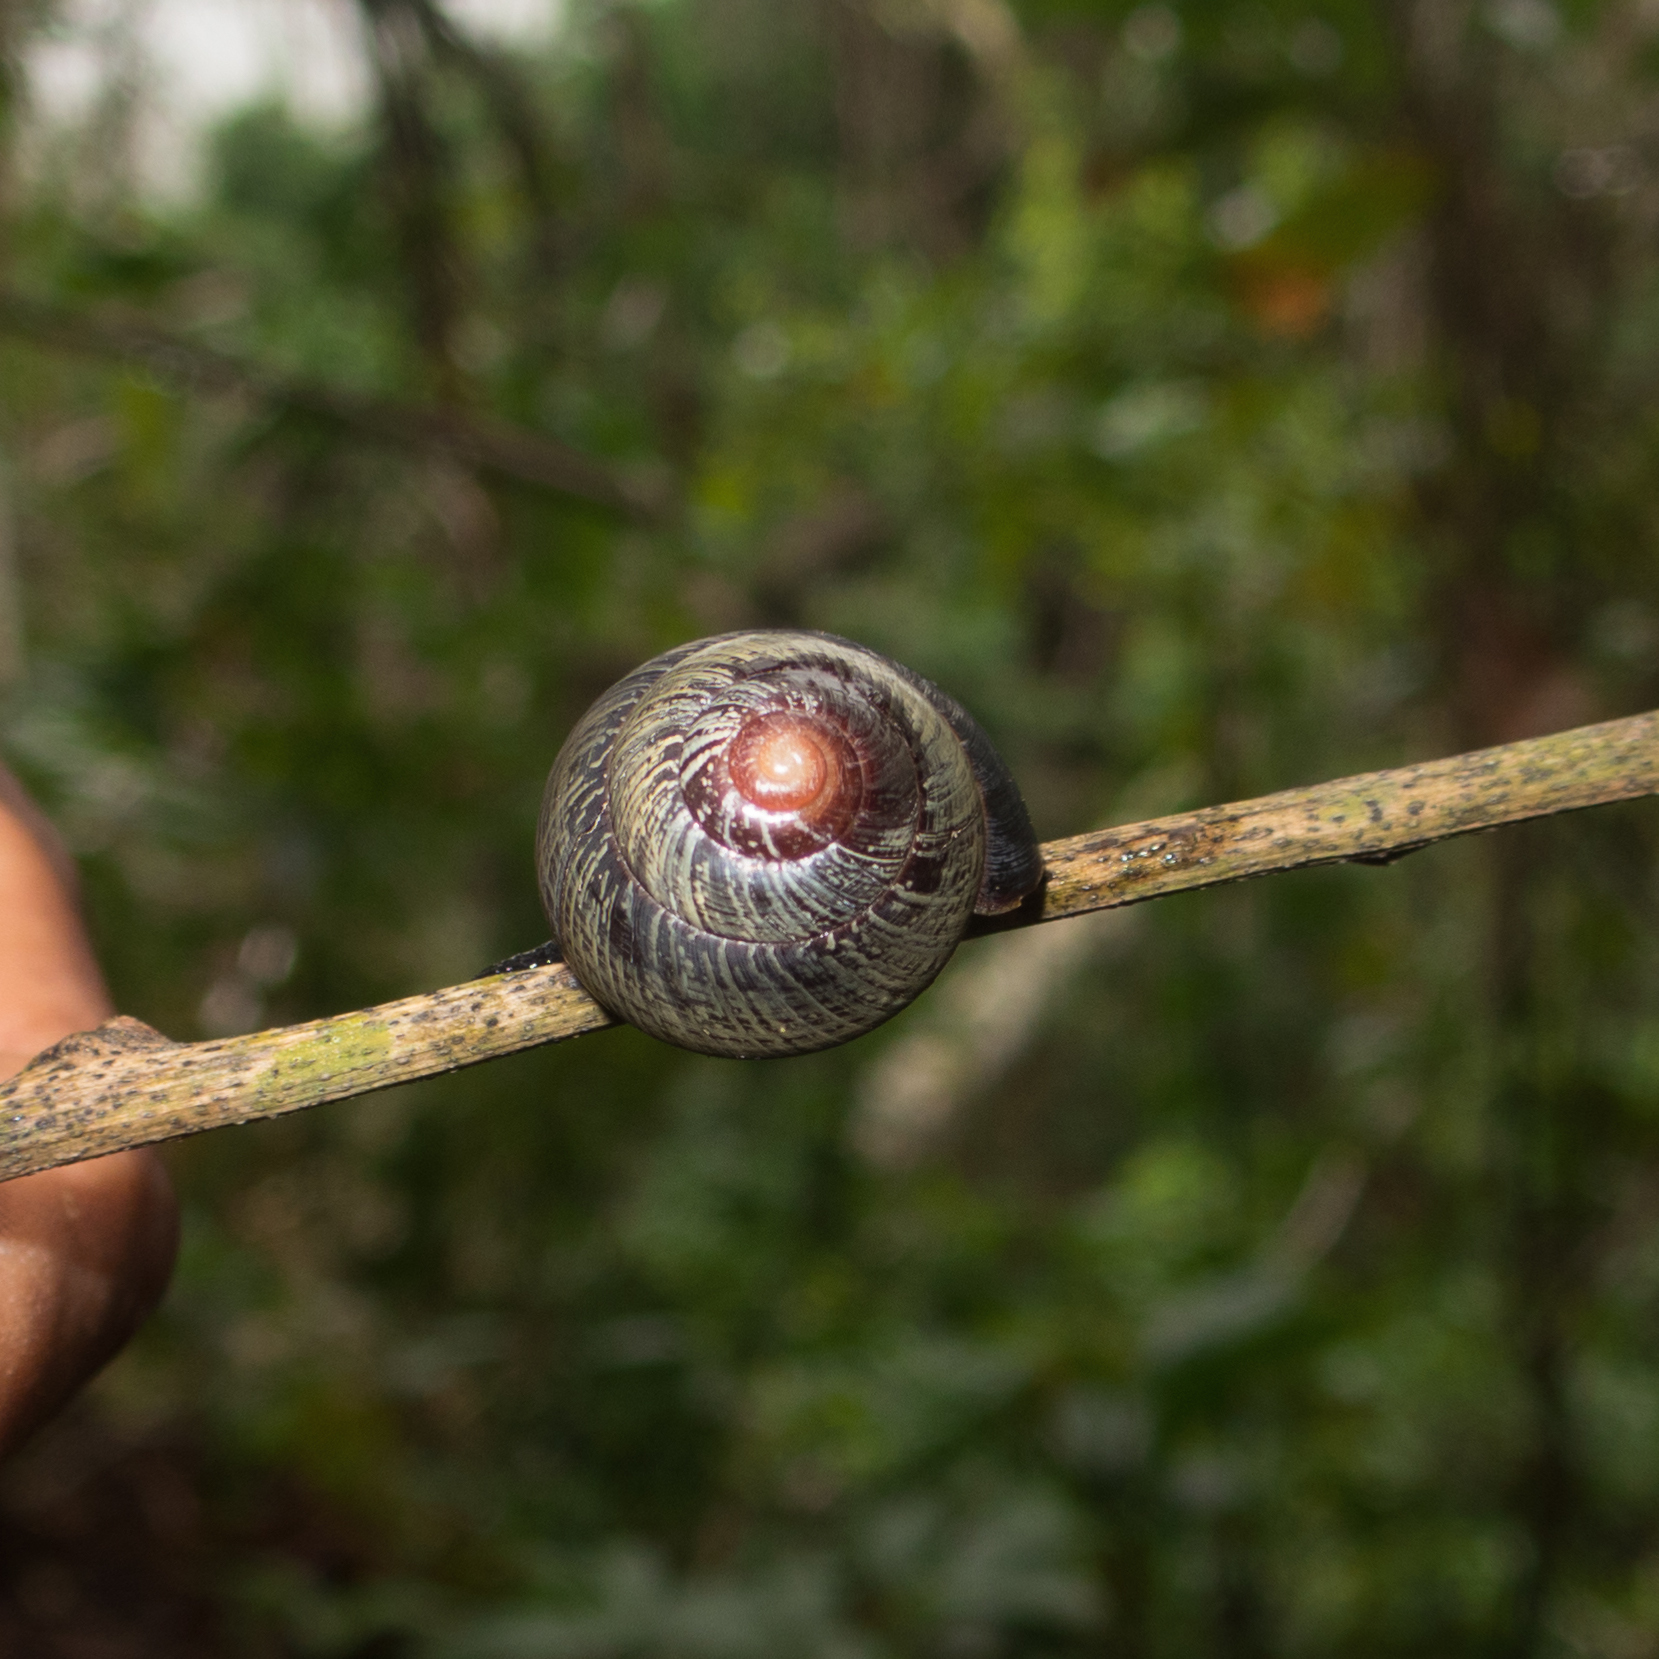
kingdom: Animalia
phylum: Mollusca
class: Gastropoda
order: Stylommatophora
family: Cepolidae
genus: Coryda
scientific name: Coryda alauda
